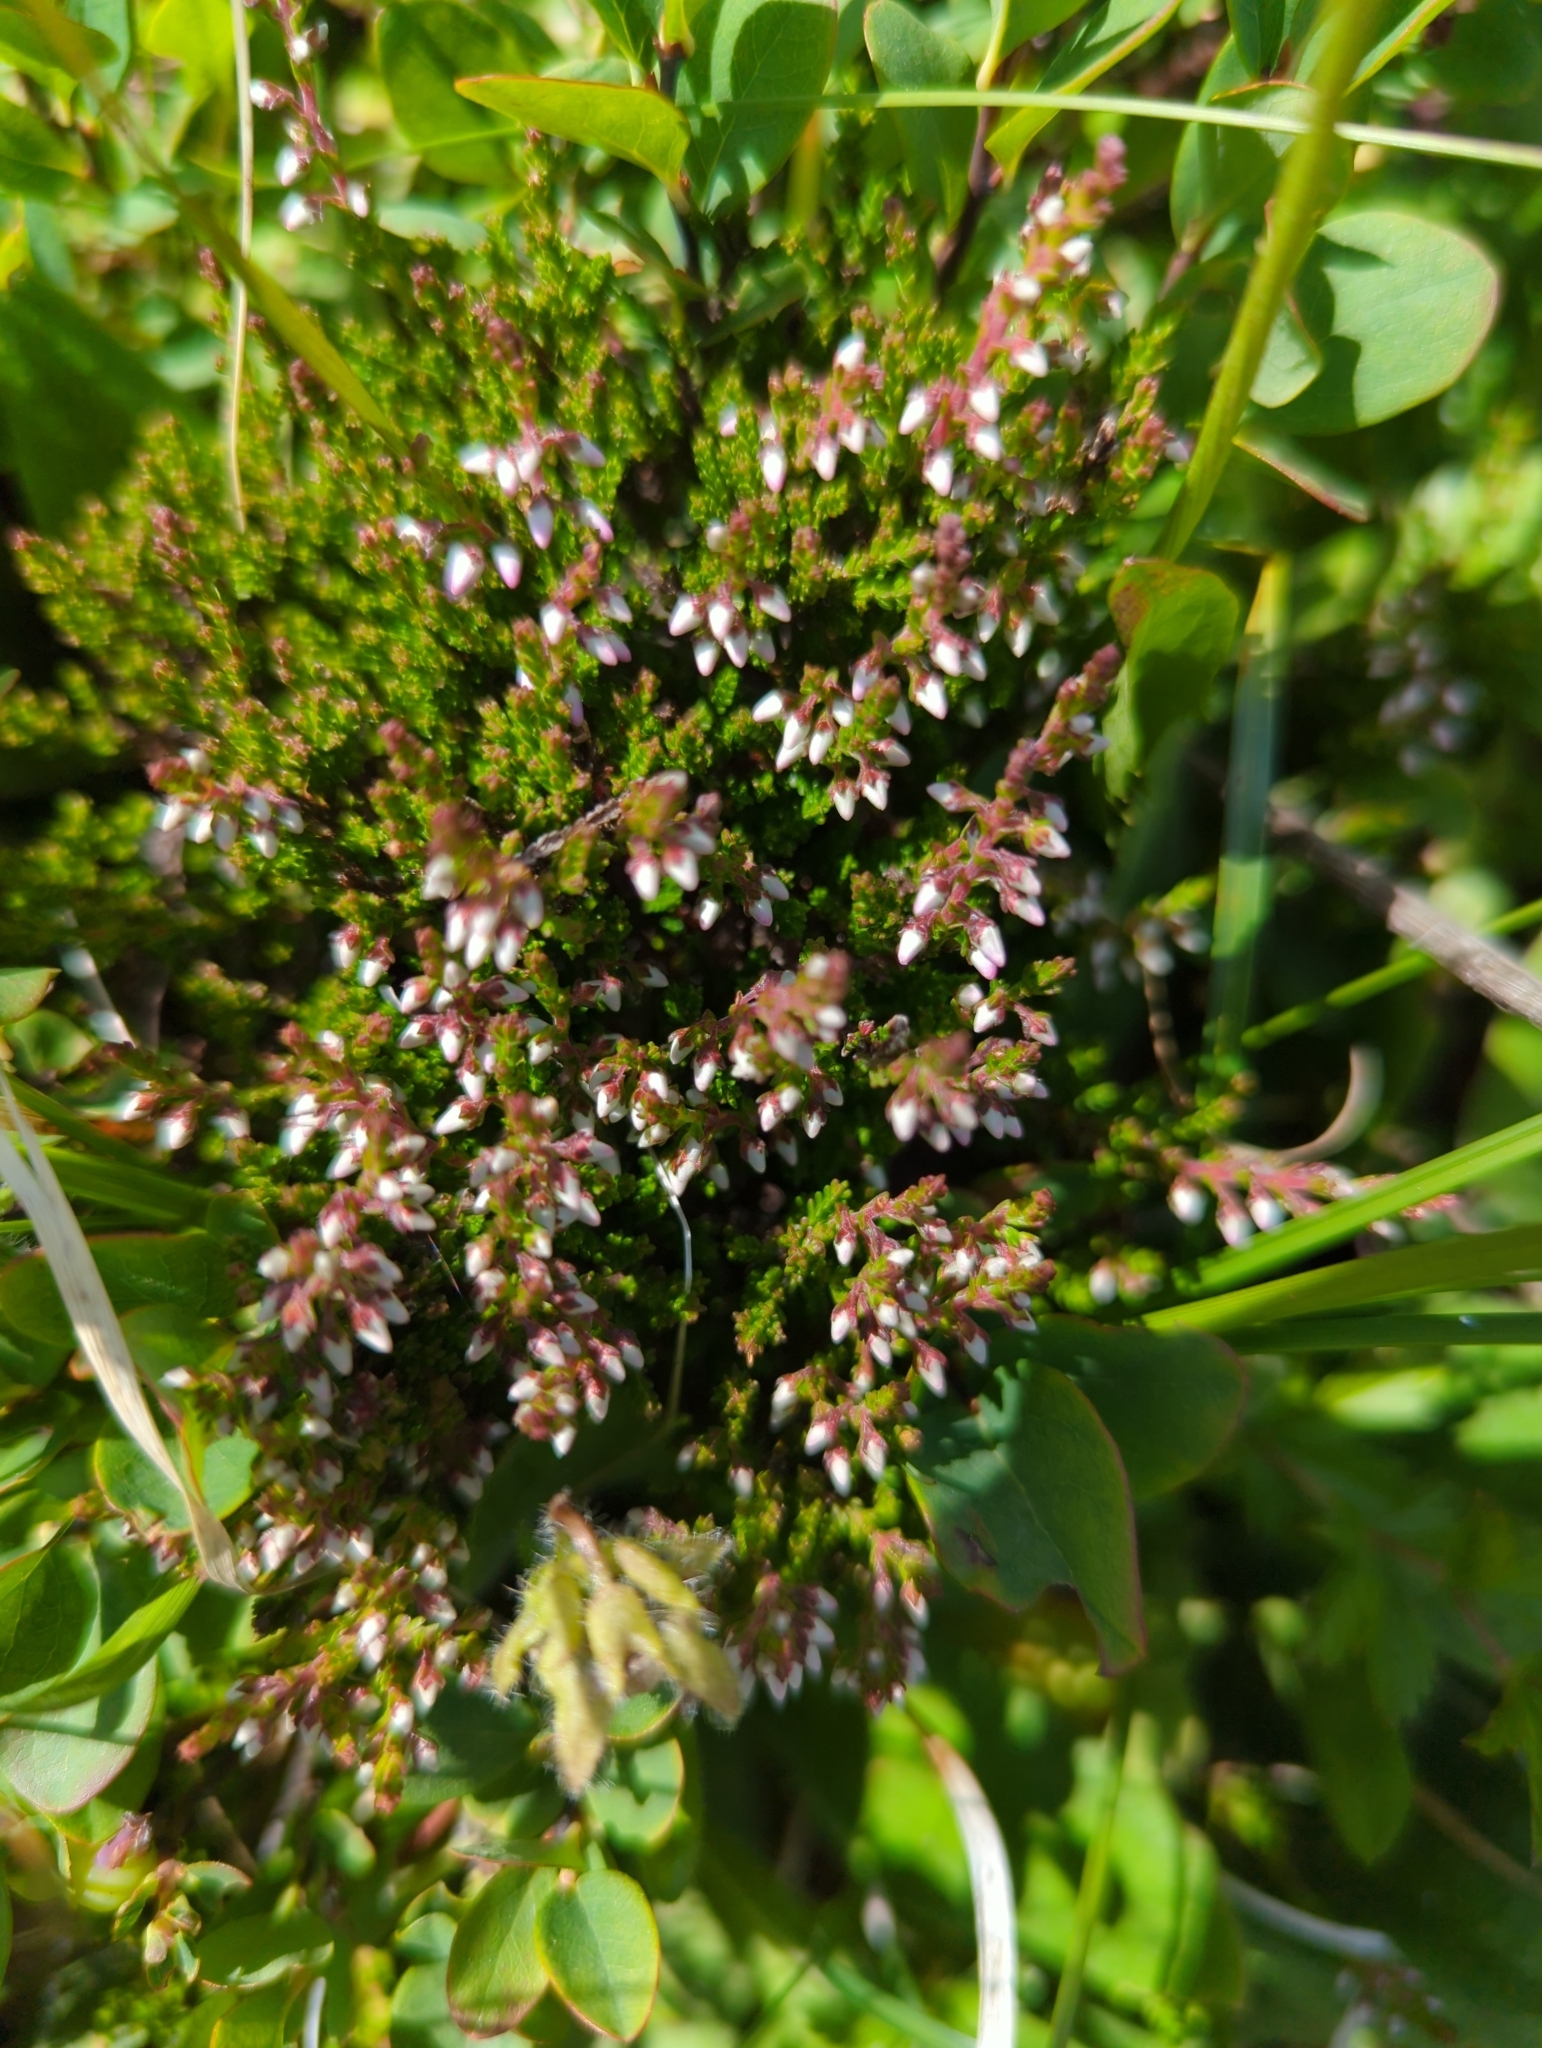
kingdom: Plantae
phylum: Tracheophyta
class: Magnoliopsida
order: Ericales
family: Ericaceae
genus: Calluna
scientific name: Calluna vulgaris
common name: Heather
